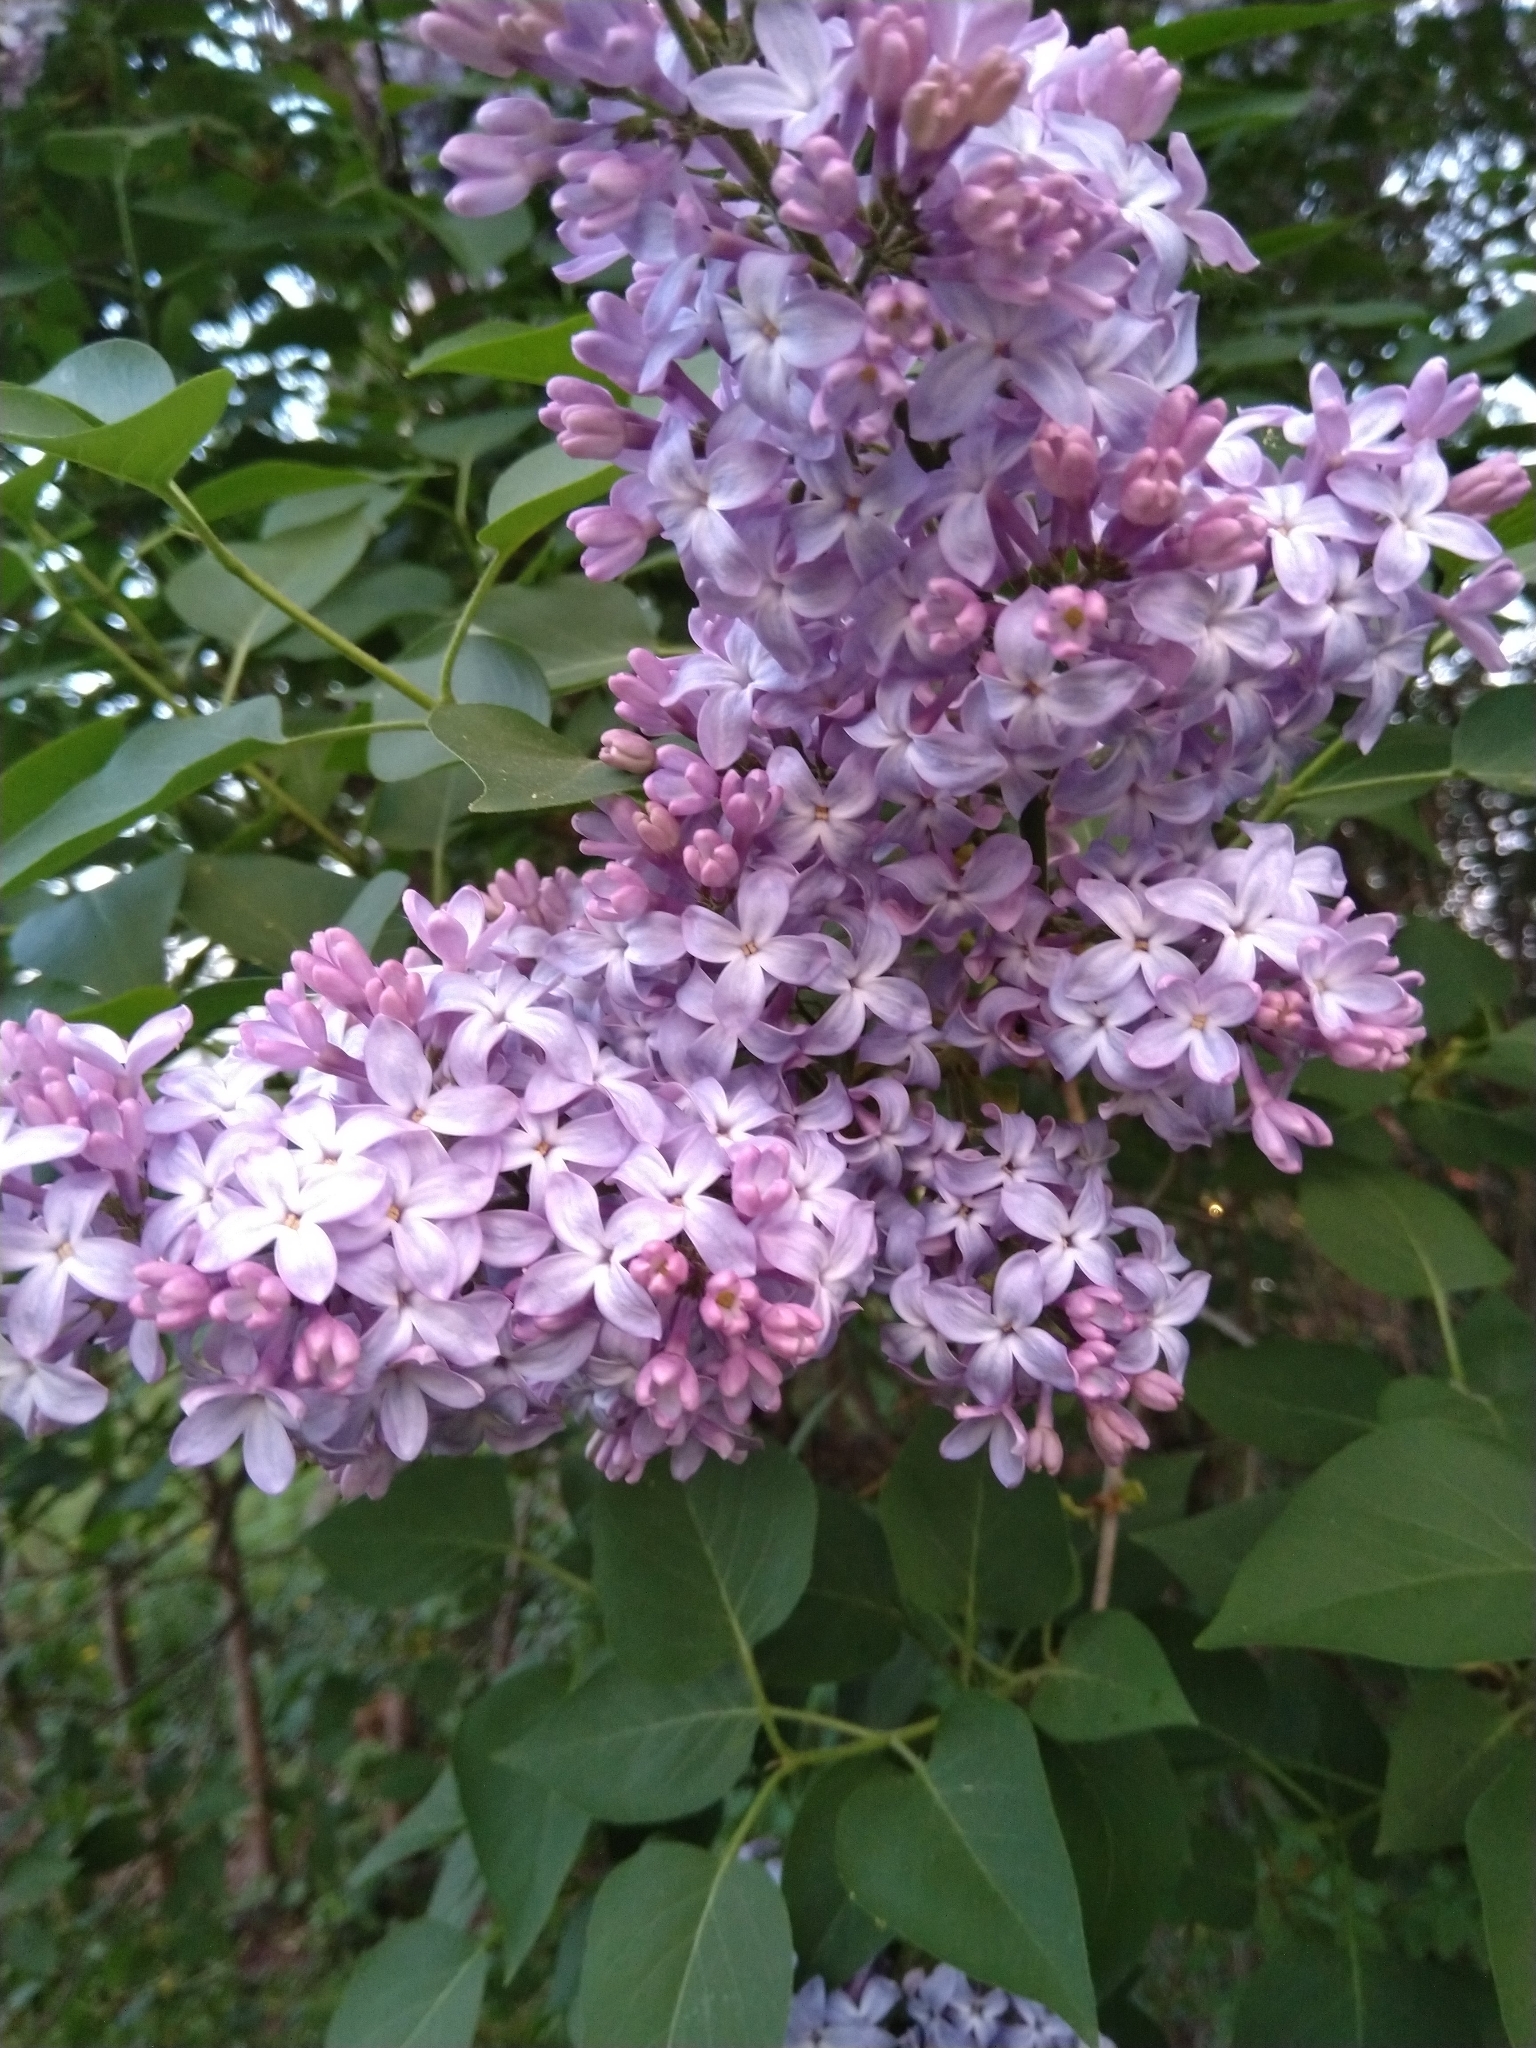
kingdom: Plantae
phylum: Tracheophyta
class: Magnoliopsida
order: Lamiales
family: Oleaceae
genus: Syringa
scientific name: Syringa vulgaris
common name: Common lilac
